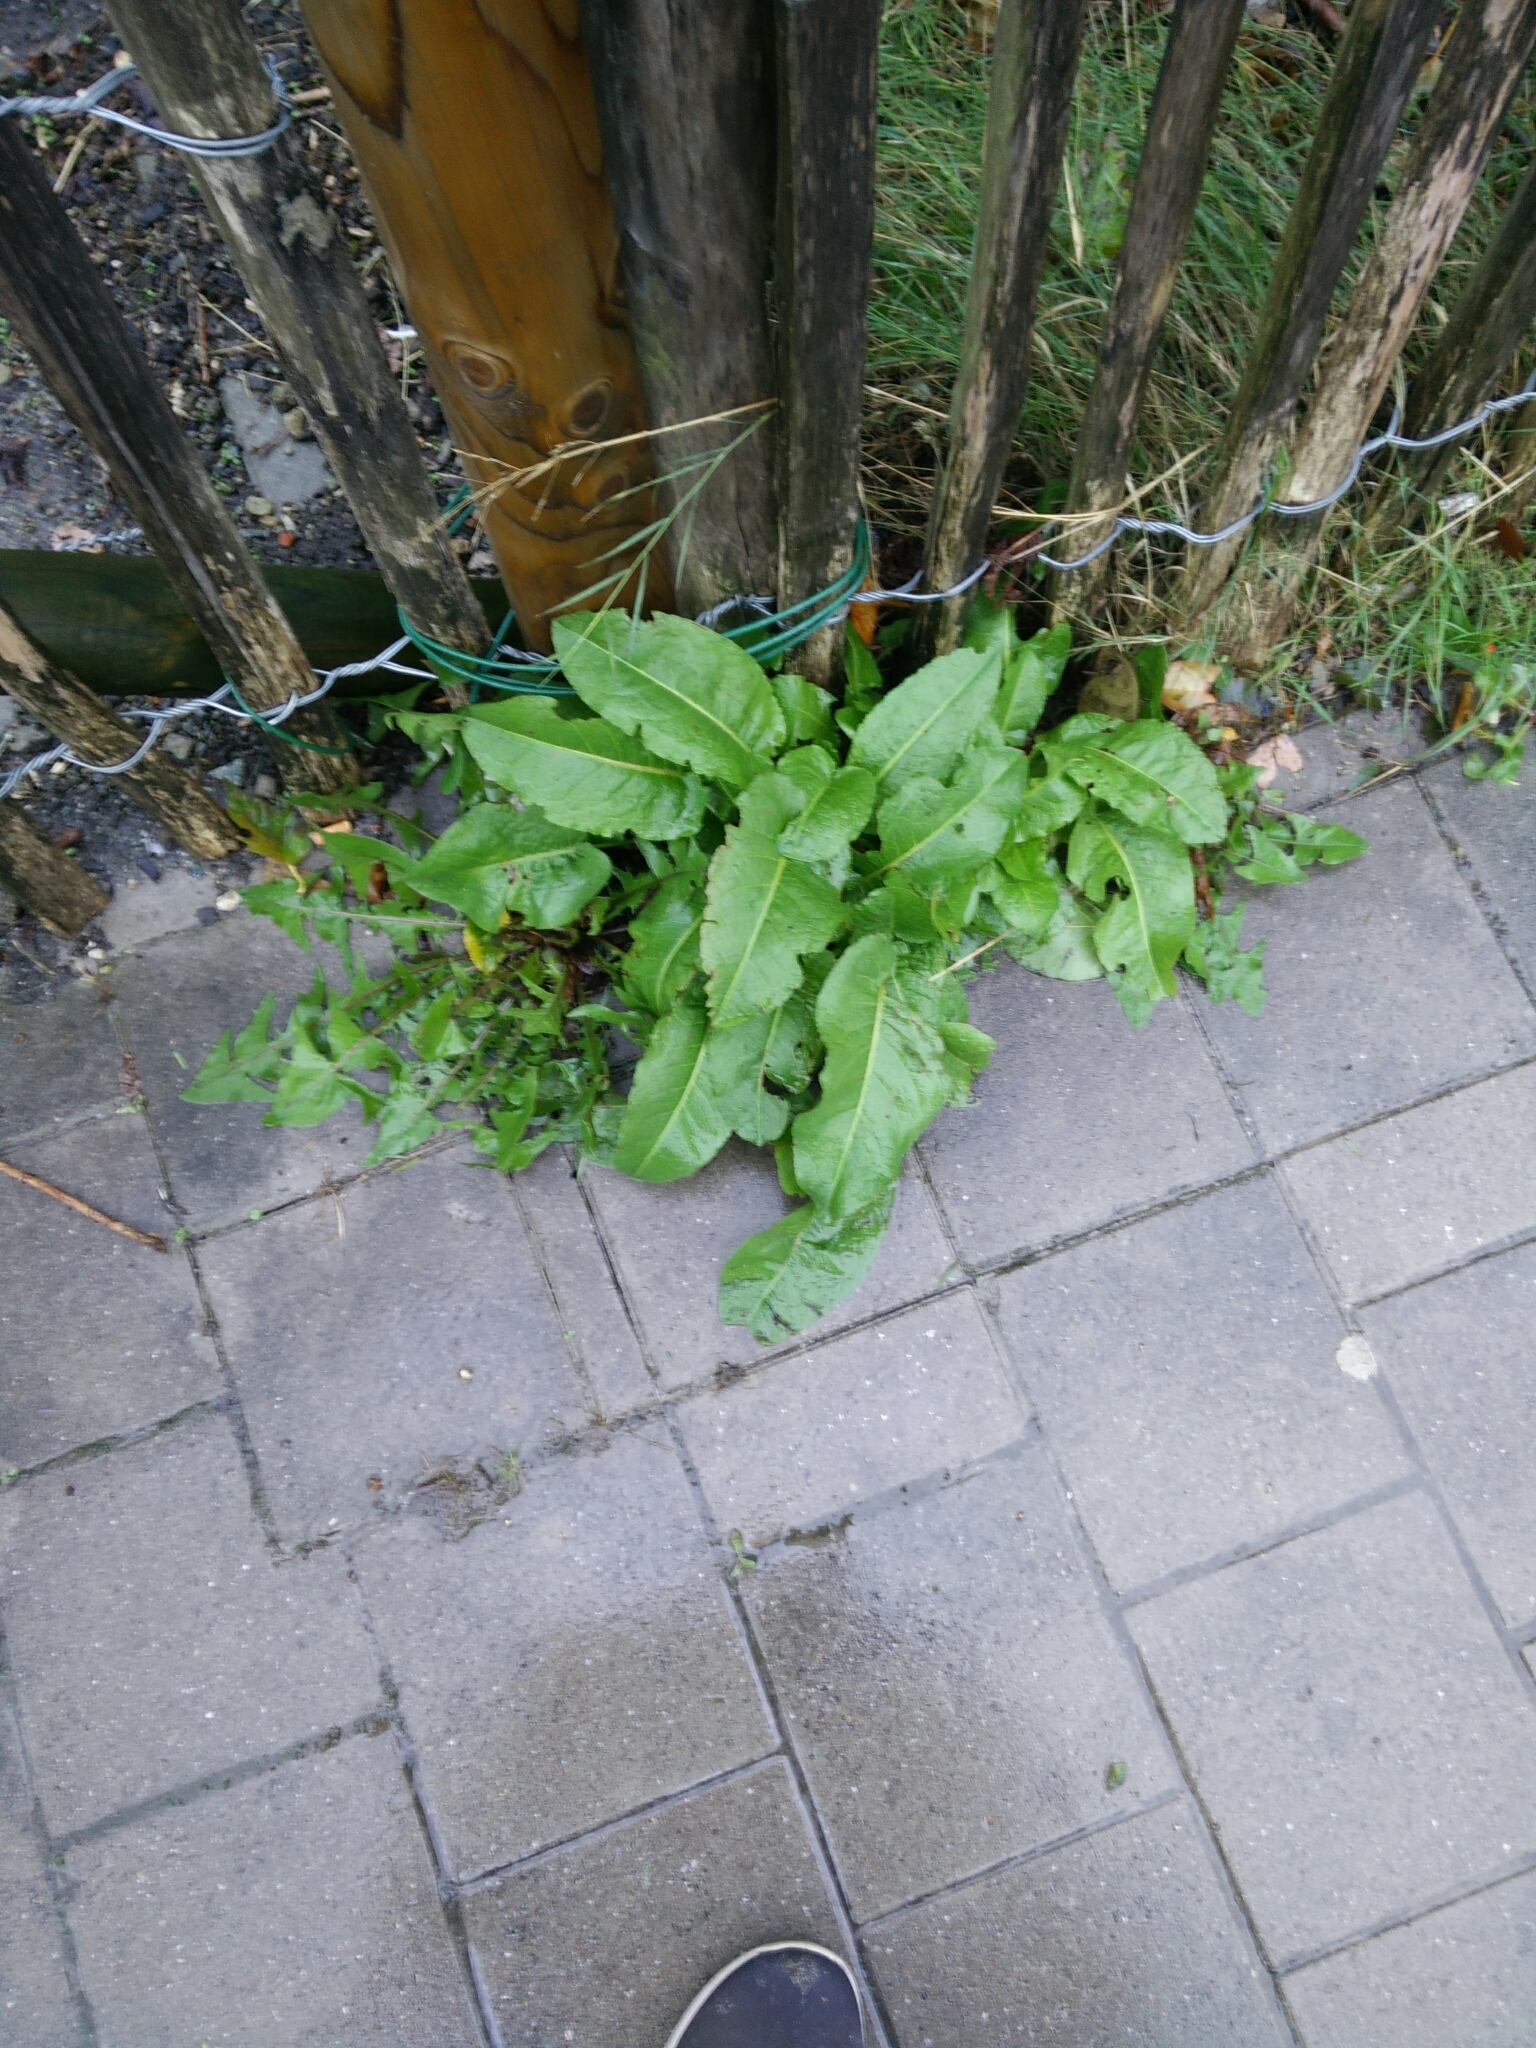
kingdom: Plantae
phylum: Tracheophyta
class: Magnoliopsida
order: Caryophyllales
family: Polygonaceae
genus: Rumex
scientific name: Rumex obtusifolius
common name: Bitter dock
